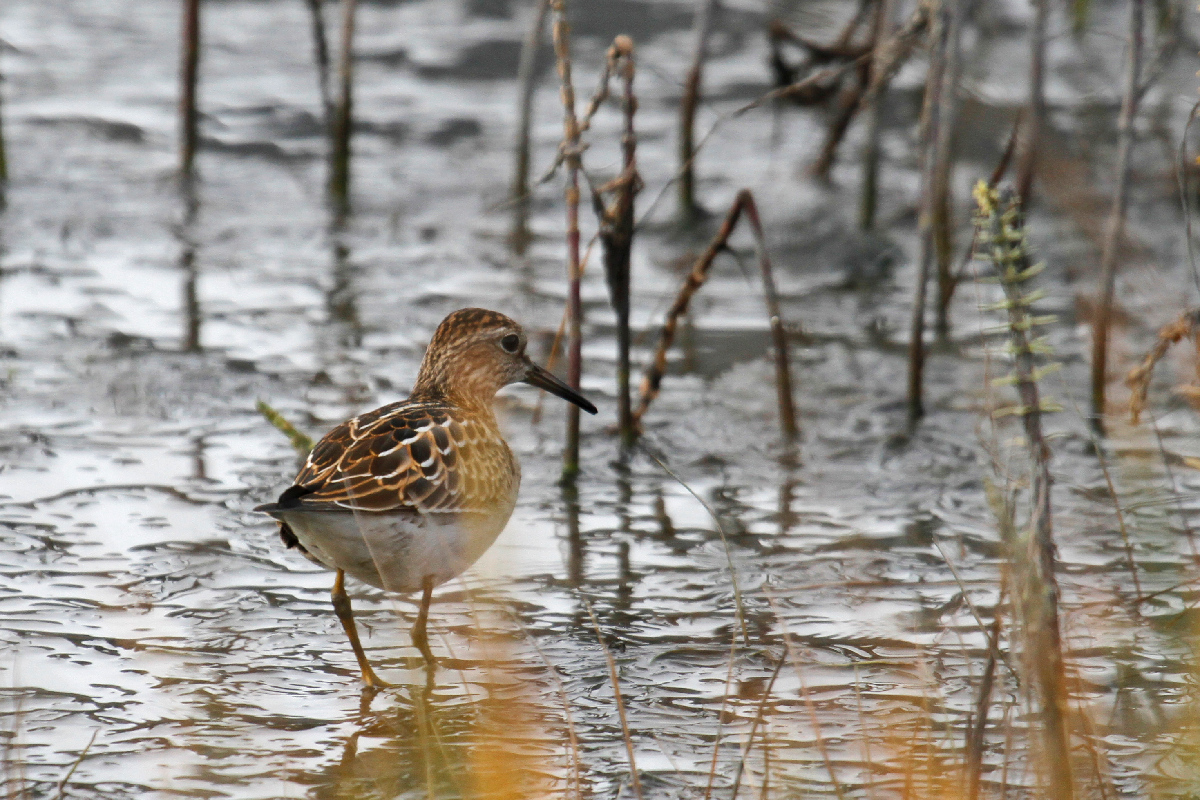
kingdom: Animalia
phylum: Chordata
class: Aves
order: Charadriiformes
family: Scolopacidae
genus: Calidris
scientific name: Calidris melanotos
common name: Pectoral sandpiper
